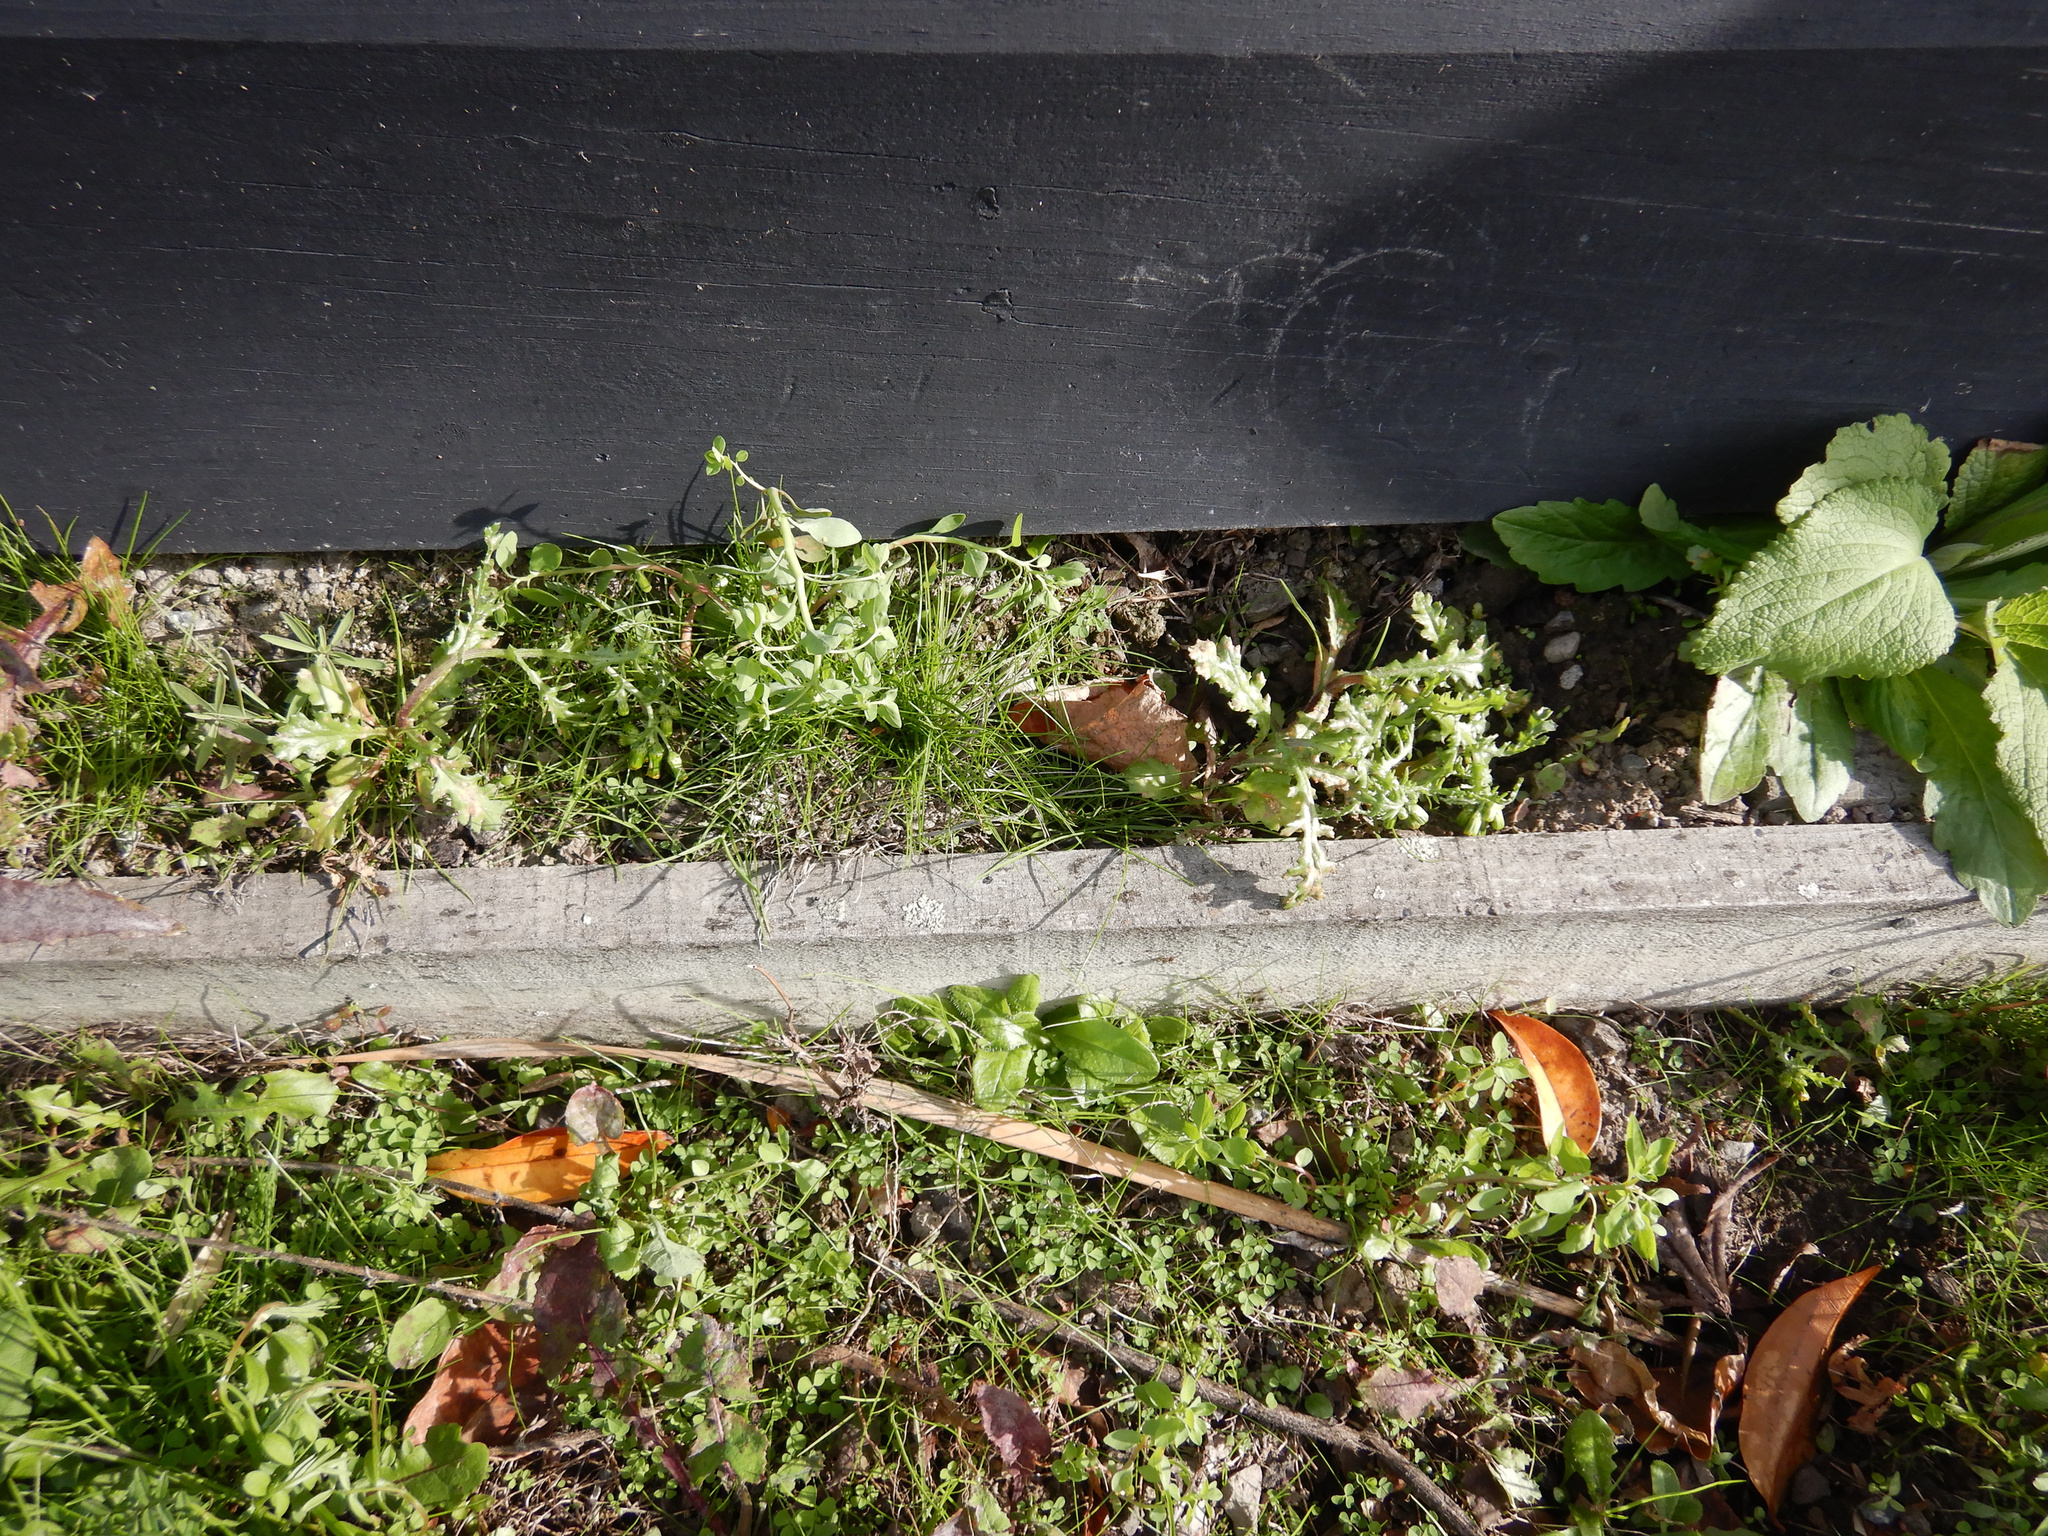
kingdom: Plantae
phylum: Tracheophyta
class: Magnoliopsida
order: Asterales
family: Asteraceae
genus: Senecio
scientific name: Senecio vulgaris
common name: Old-man-in-the-spring
